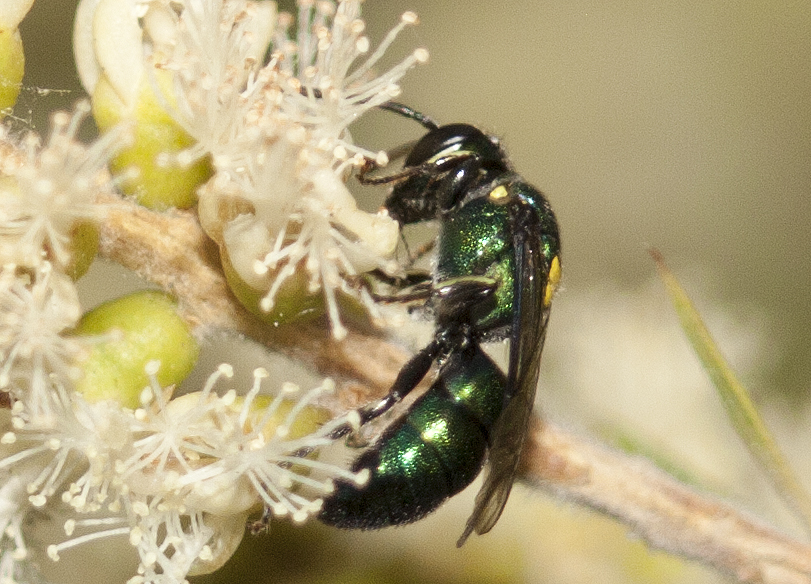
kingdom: Animalia
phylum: Arthropoda
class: Insecta
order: Hymenoptera
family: Colletidae
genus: Palaeorhiza
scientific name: Palaeorhiza parallela
